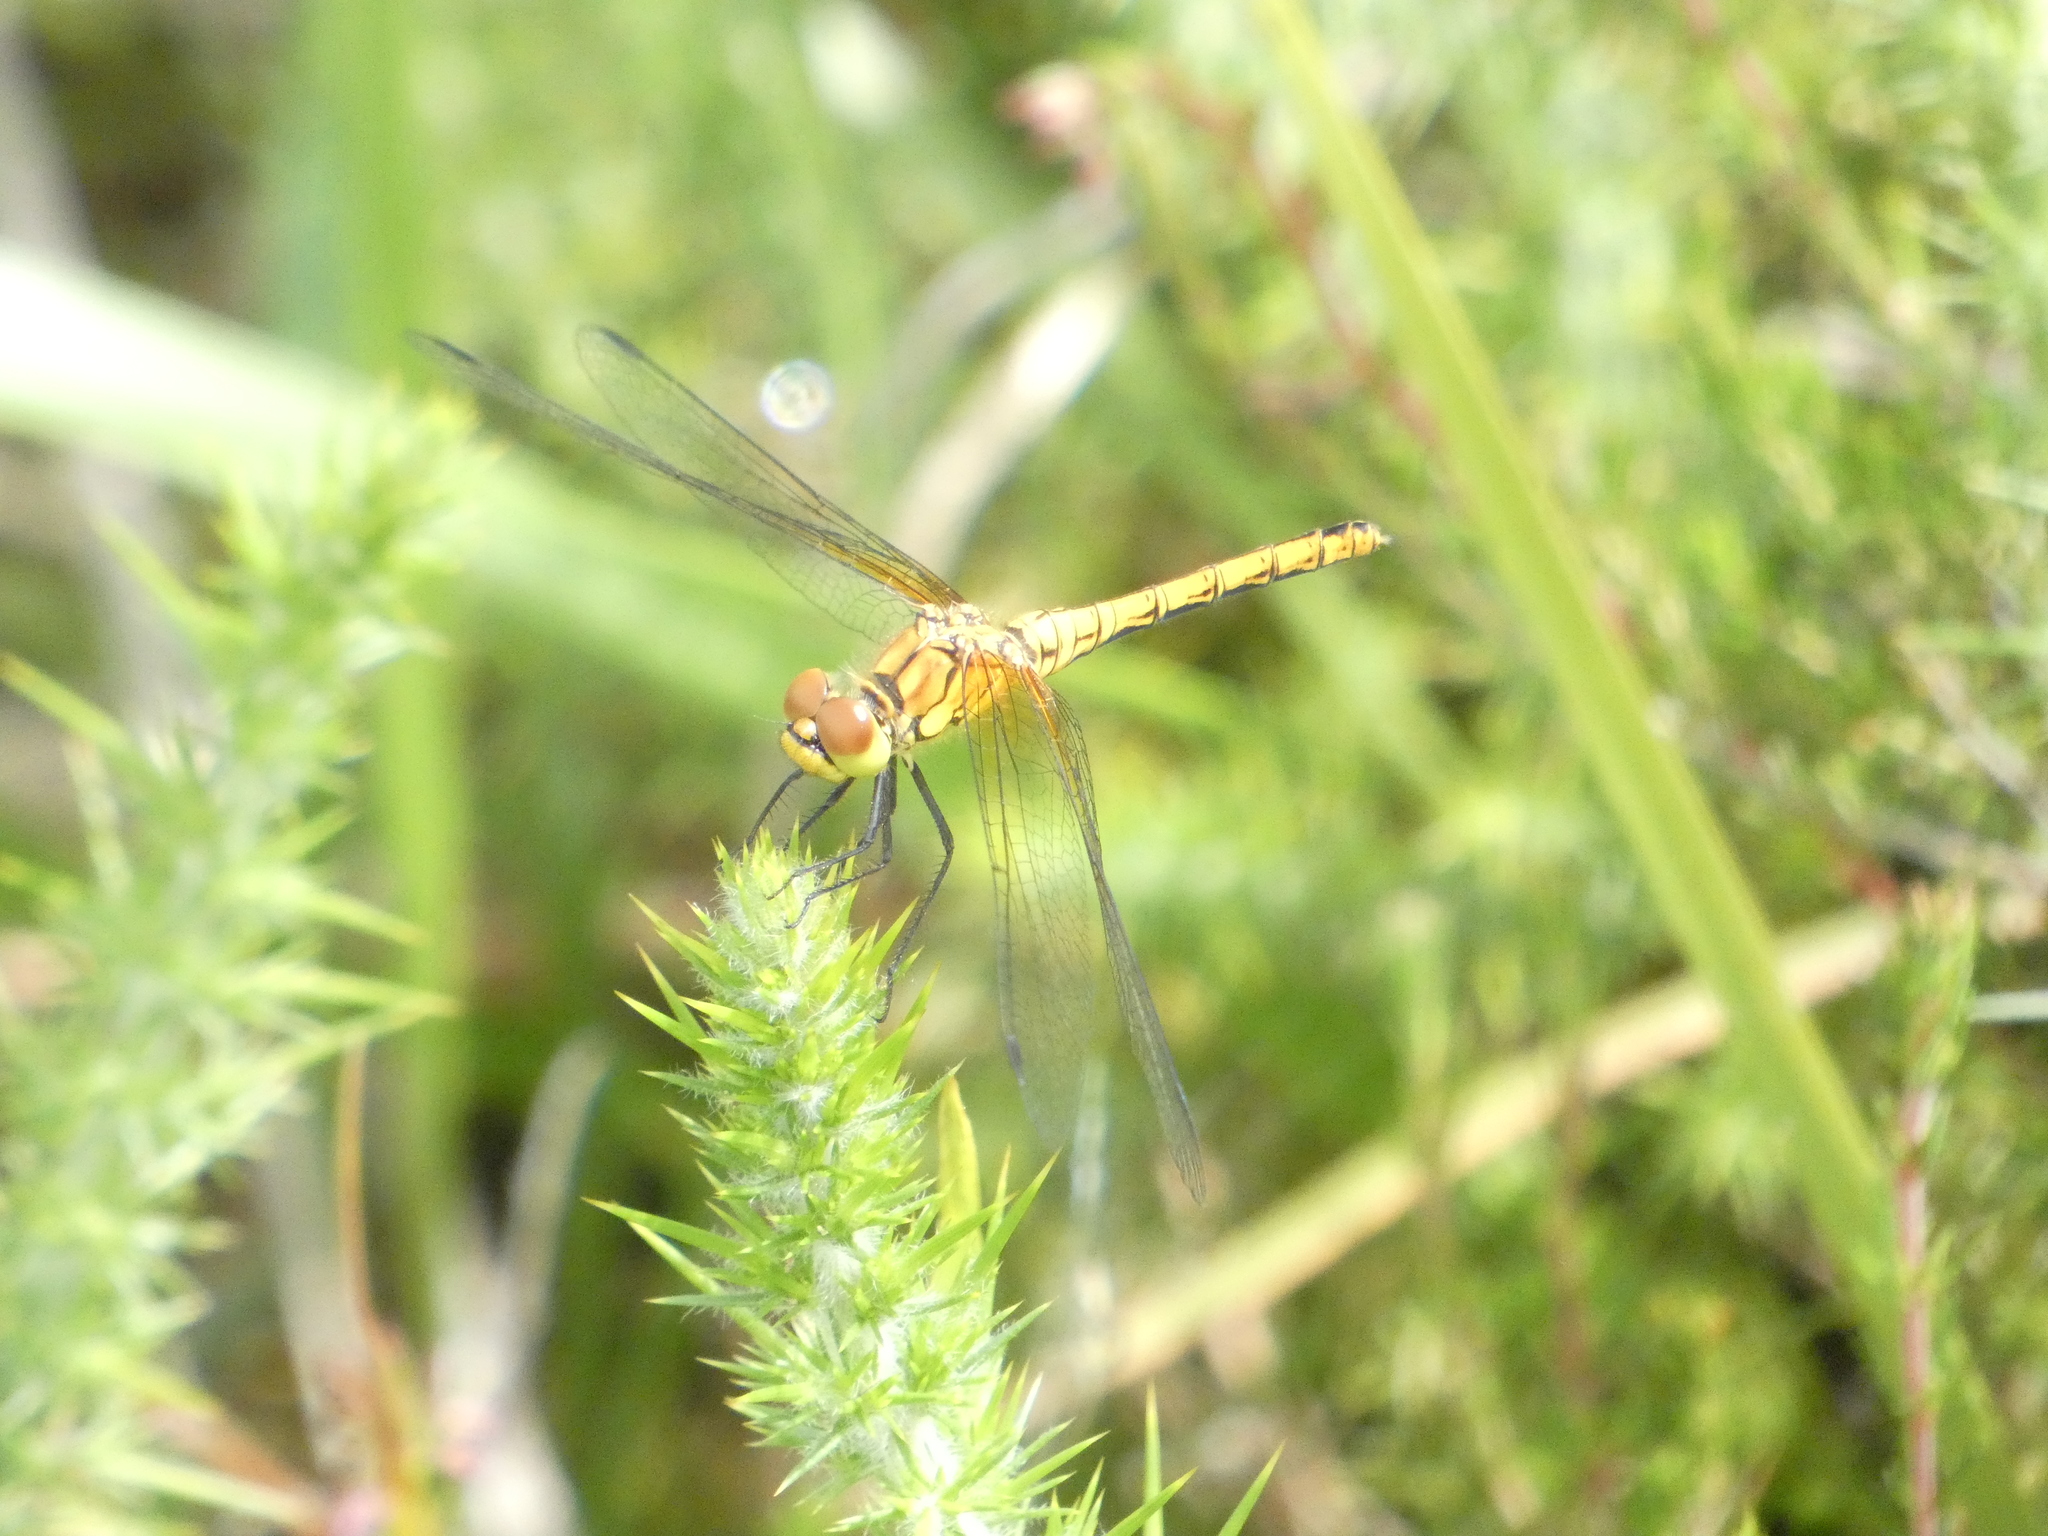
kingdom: Animalia
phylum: Arthropoda
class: Insecta
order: Odonata
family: Libellulidae
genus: Sympetrum
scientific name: Sympetrum sanguineum
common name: Ruddy darter
